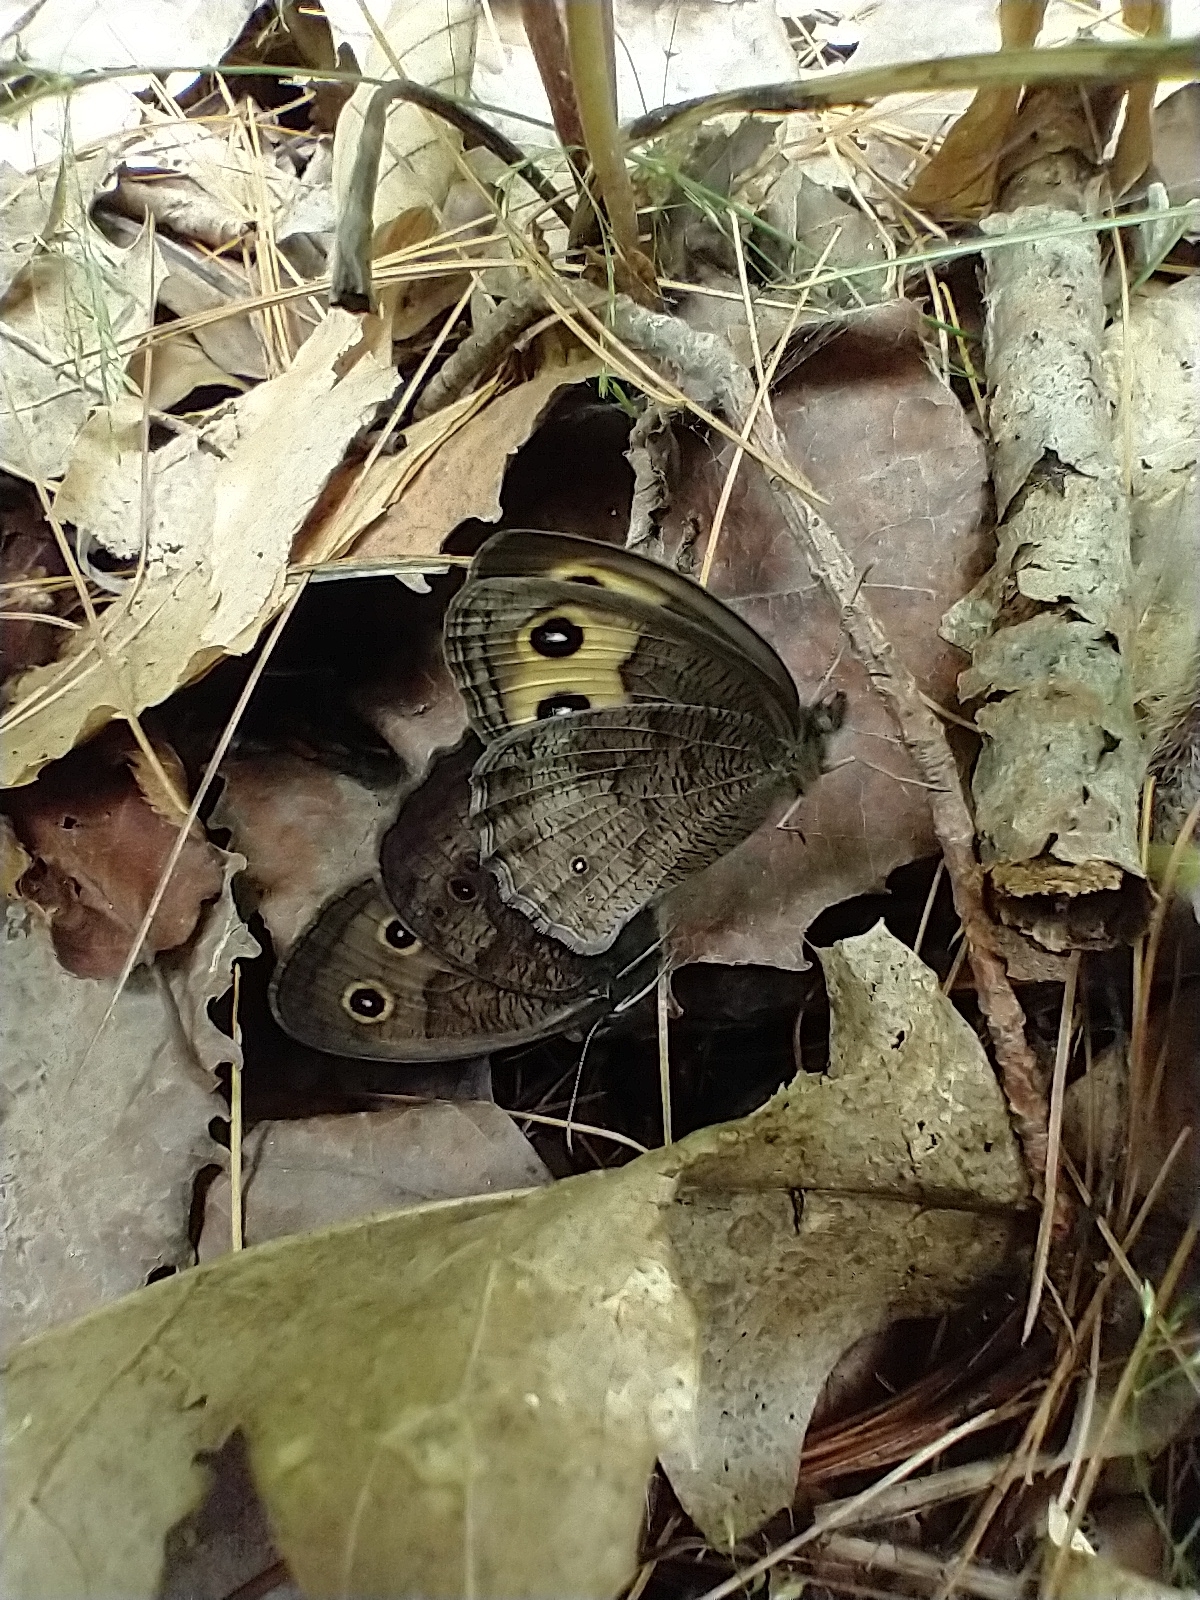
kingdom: Animalia
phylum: Arthropoda
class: Insecta
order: Lepidoptera
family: Nymphalidae
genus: Cercyonis
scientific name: Cercyonis pegala
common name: Common wood-nymph
